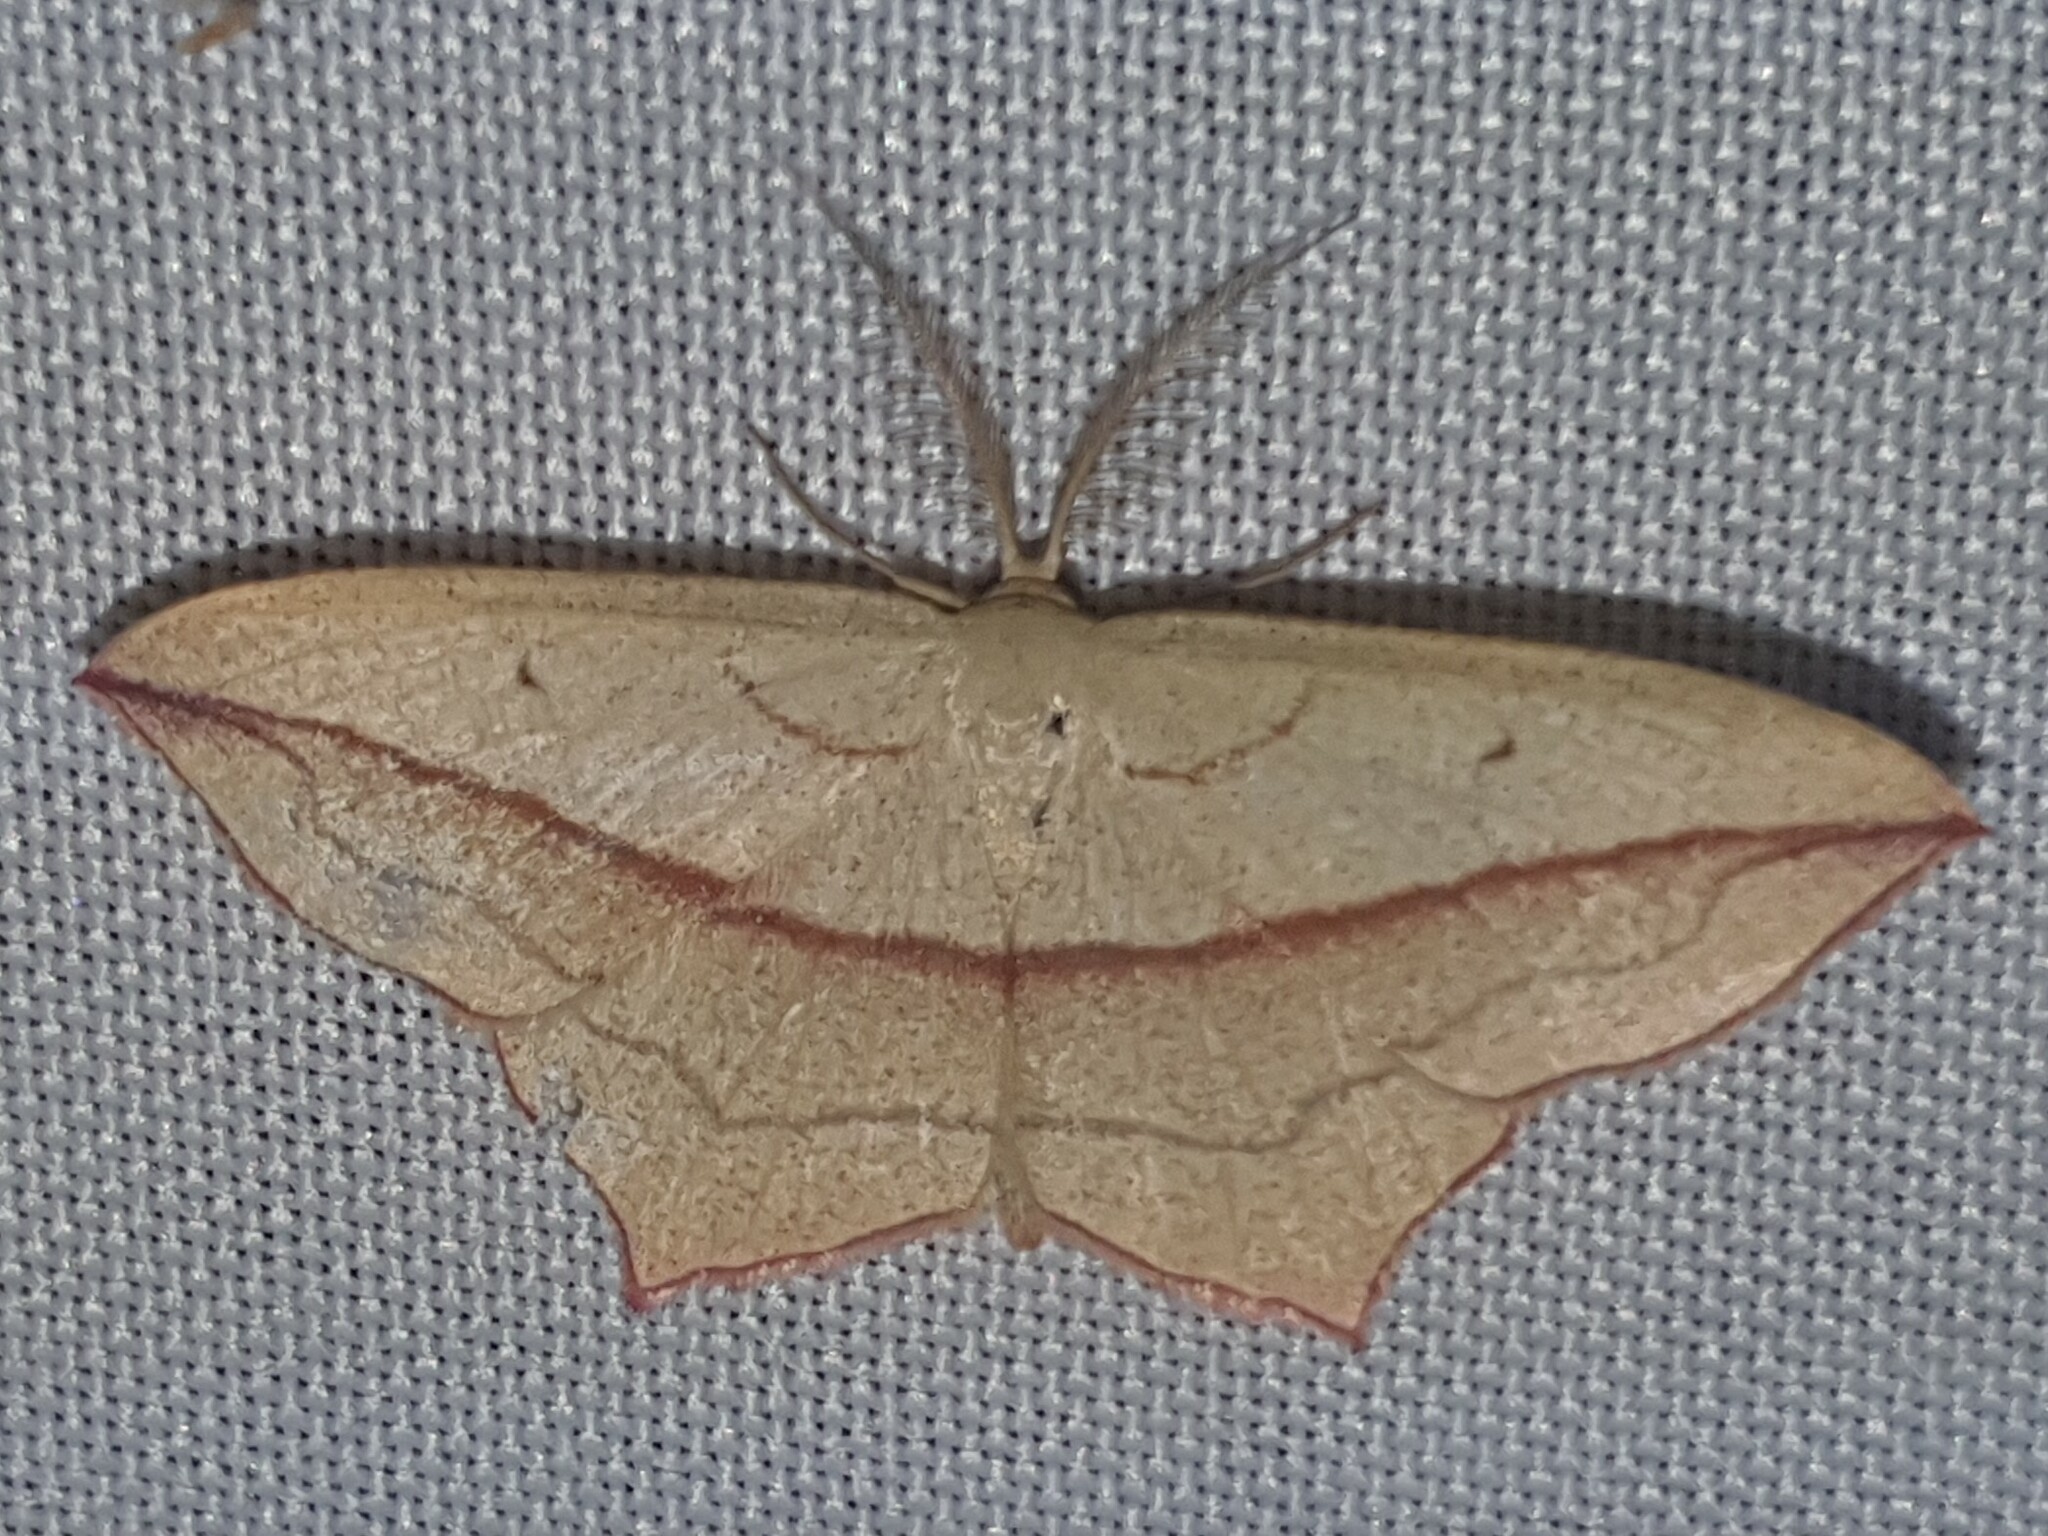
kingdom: Animalia
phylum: Arthropoda
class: Insecta
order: Lepidoptera
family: Geometridae
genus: Timandra
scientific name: Timandra comae
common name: Blood-vein
